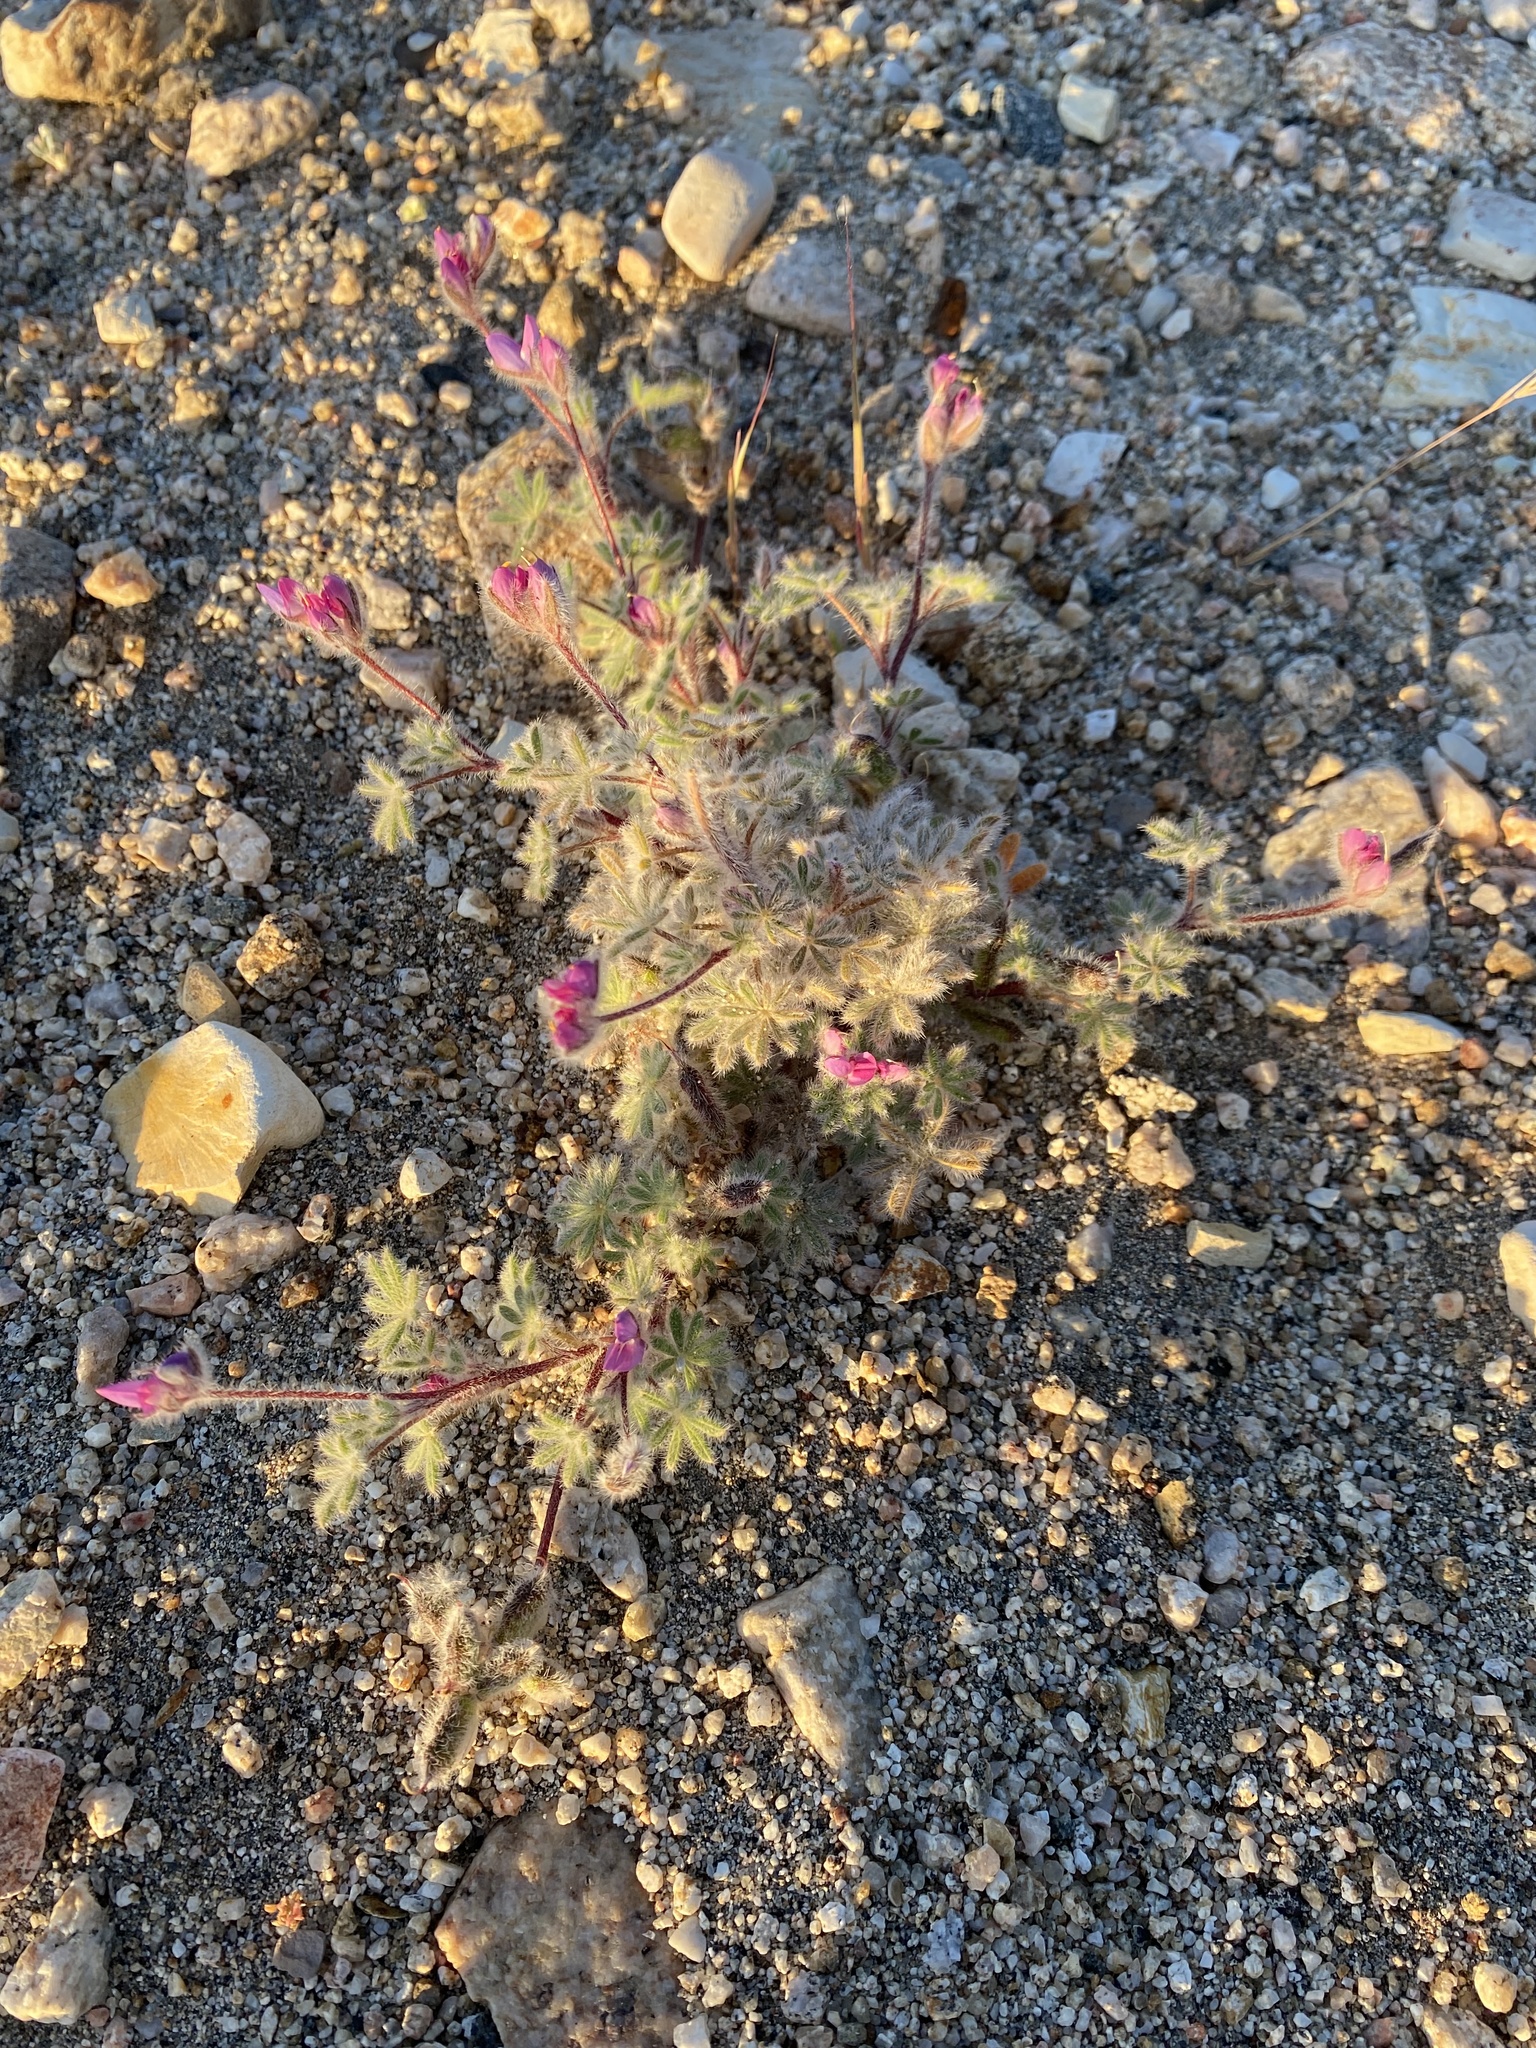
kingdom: Plantae
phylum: Tracheophyta
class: Magnoliopsida
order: Fabales
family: Fabaceae
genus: Lupinus
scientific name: Lupinus concinnus
